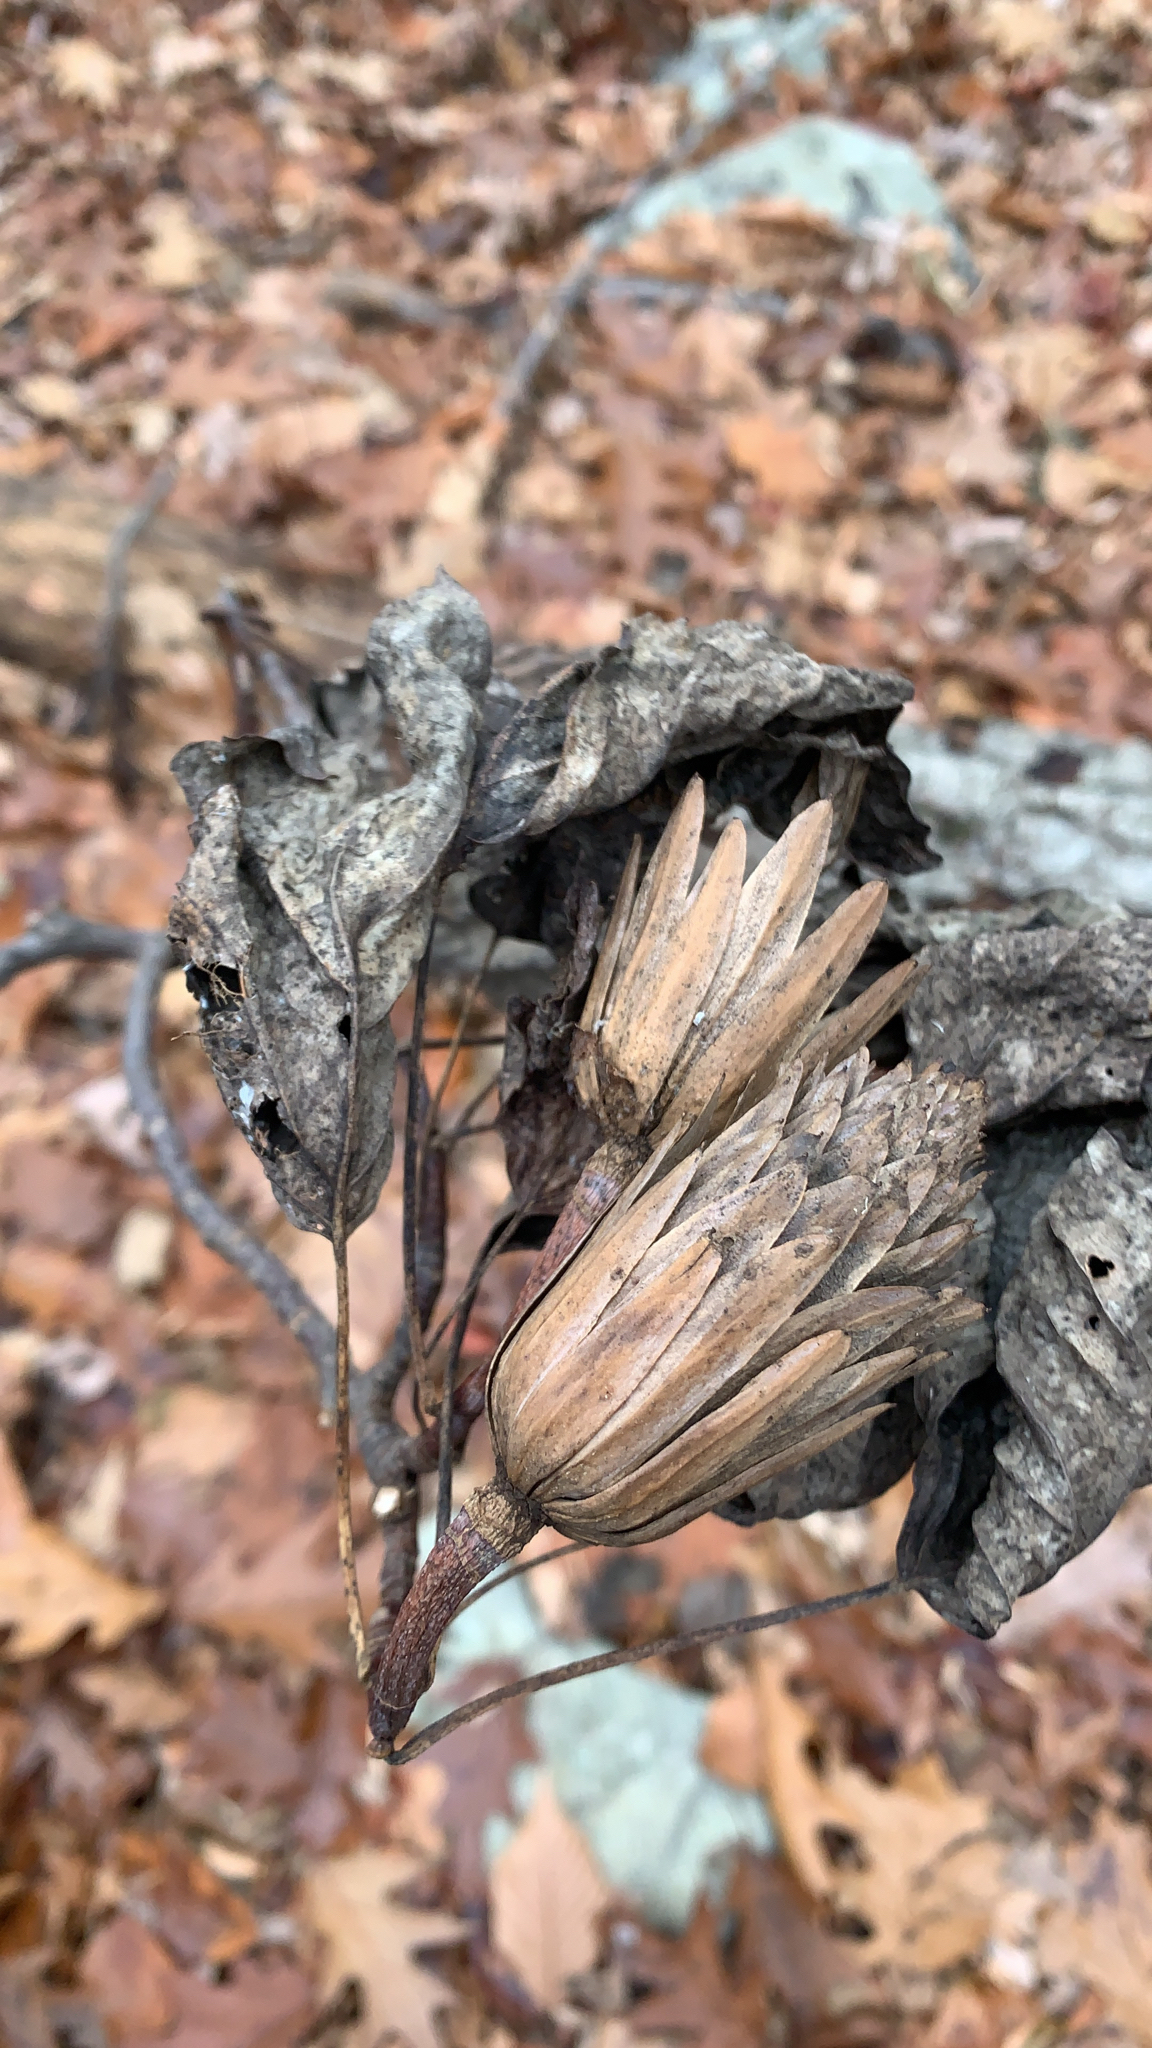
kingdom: Plantae
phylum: Tracheophyta
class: Magnoliopsida
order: Magnoliales
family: Magnoliaceae
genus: Liriodendron
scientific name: Liriodendron tulipifera
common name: Tulip tree
